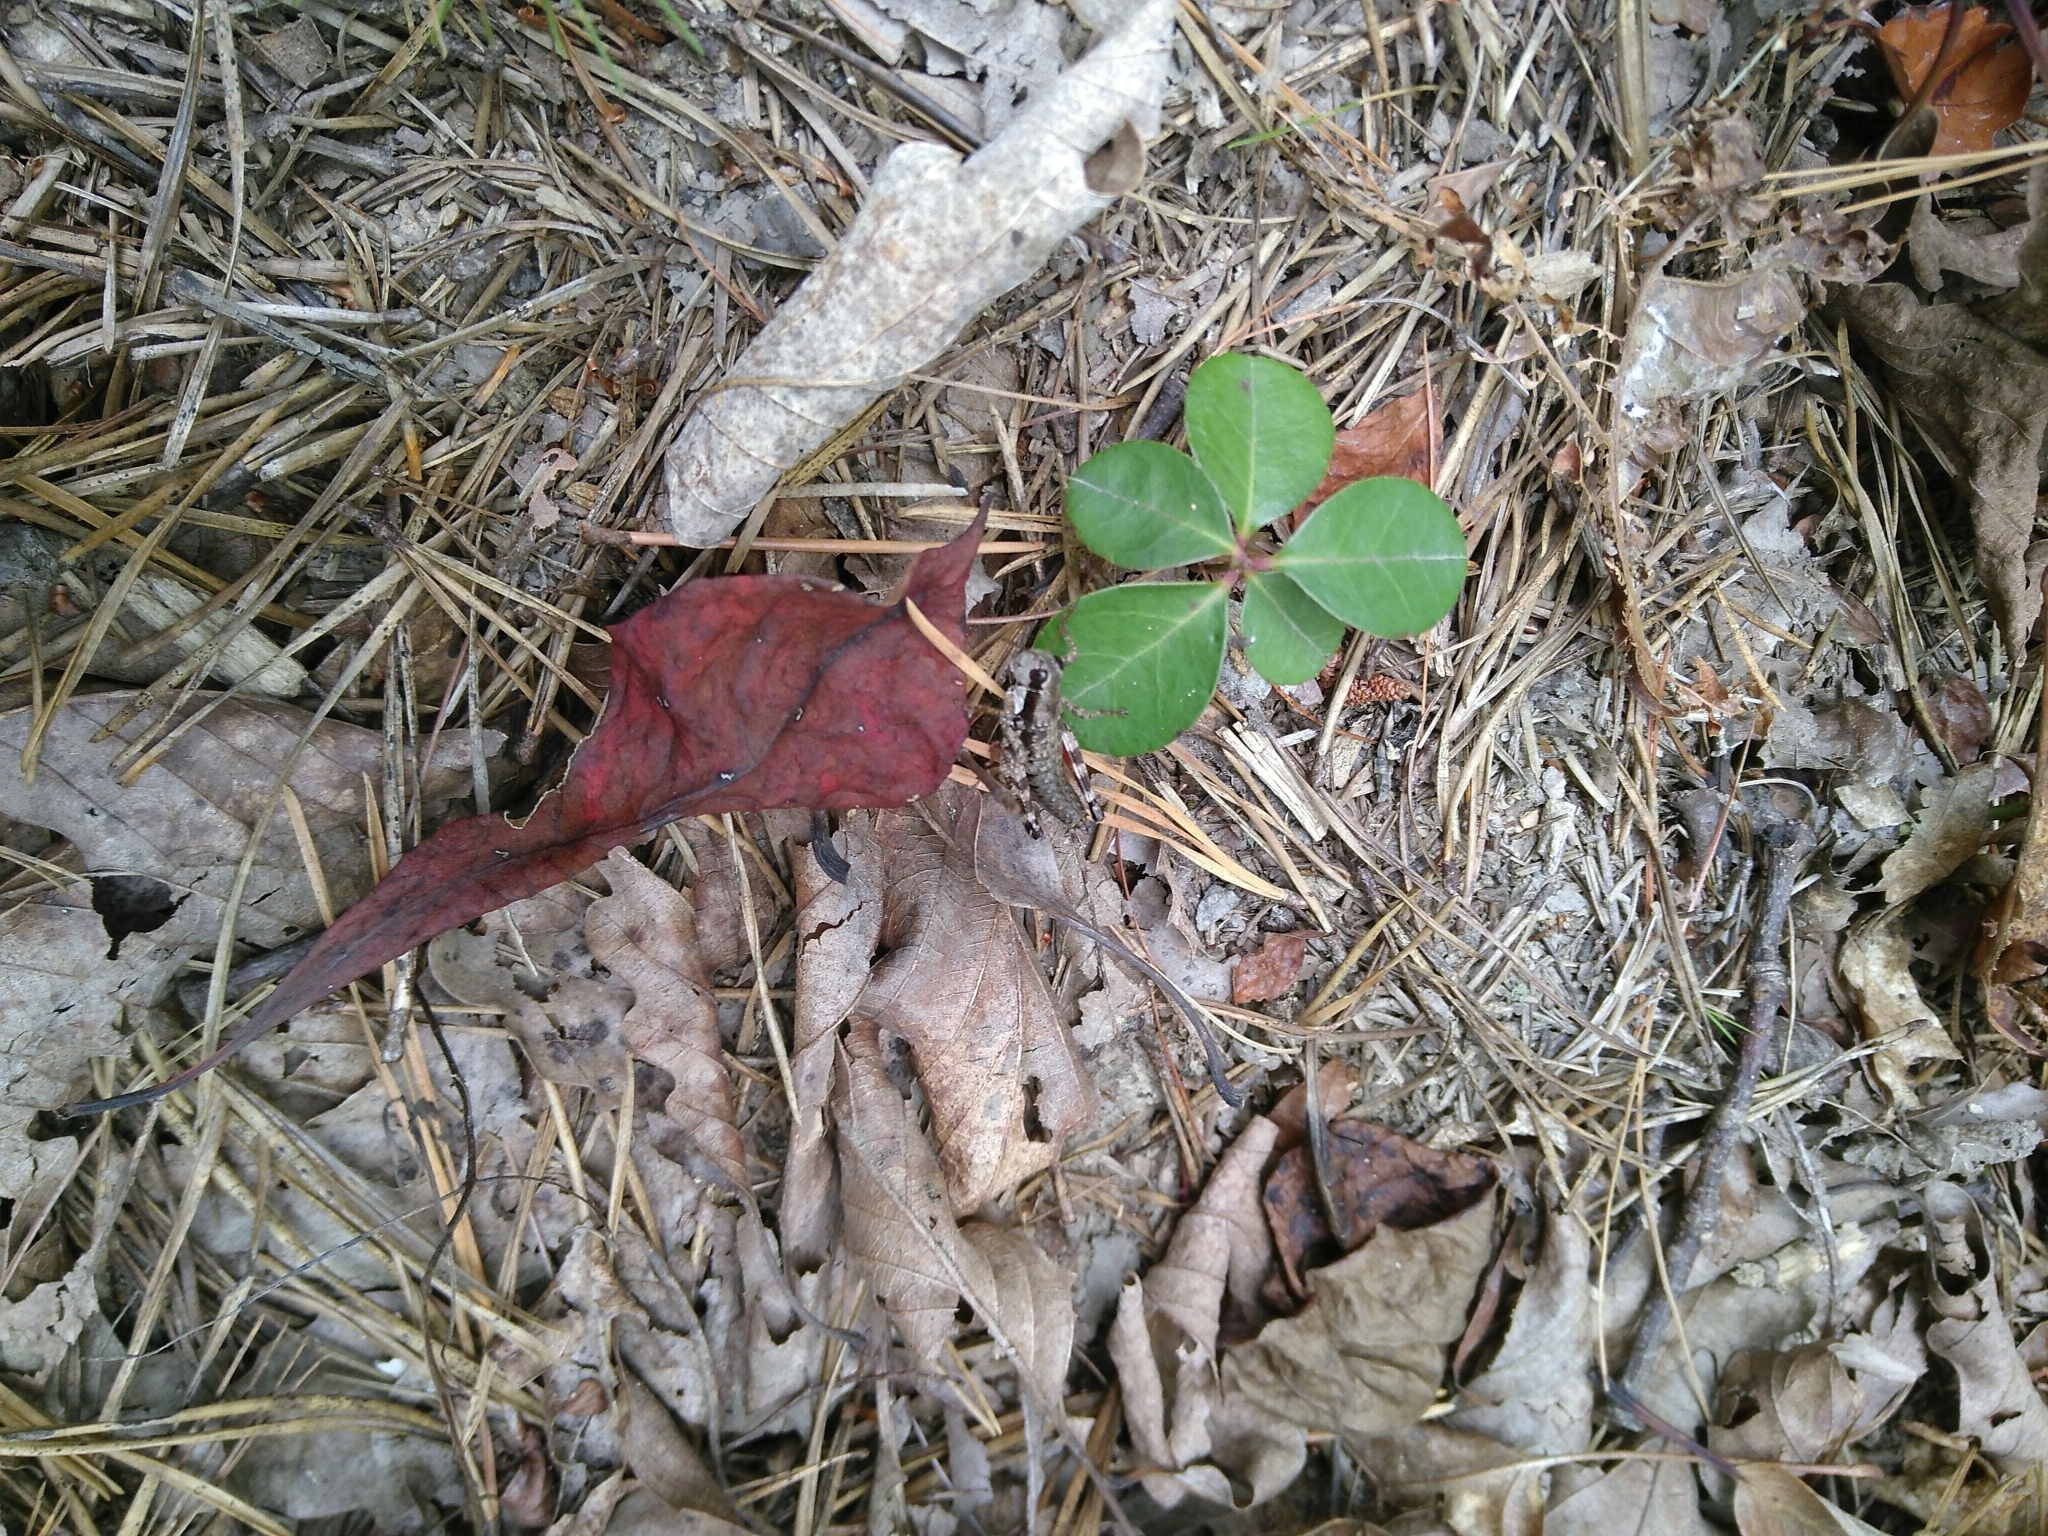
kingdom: Animalia
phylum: Arthropoda
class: Insecta
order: Orthoptera
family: Acrididae
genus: Booneacris
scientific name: Booneacris glacialis
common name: Wingless mountain grasshopper
